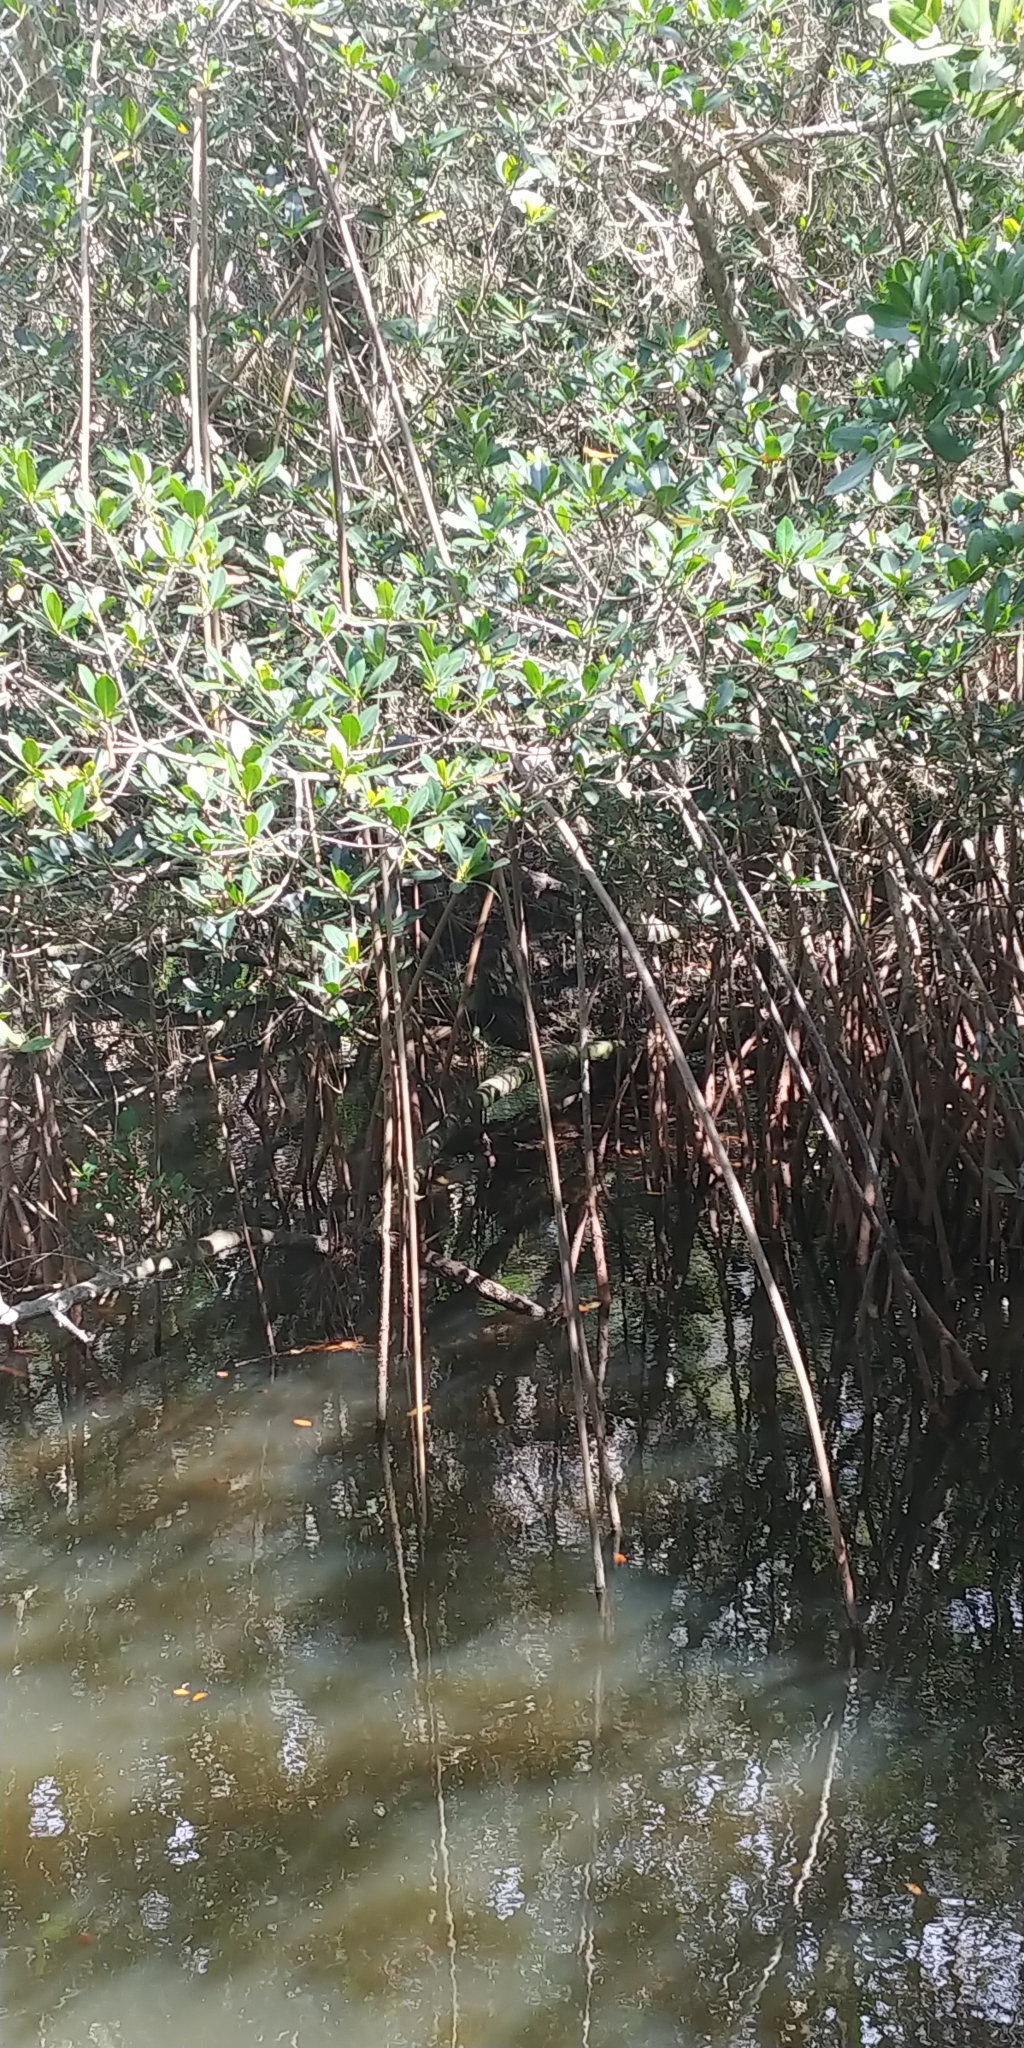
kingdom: Plantae
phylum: Tracheophyta
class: Magnoliopsida
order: Malpighiales
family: Rhizophoraceae
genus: Rhizophora
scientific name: Rhizophora mangle
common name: Red mangrove
